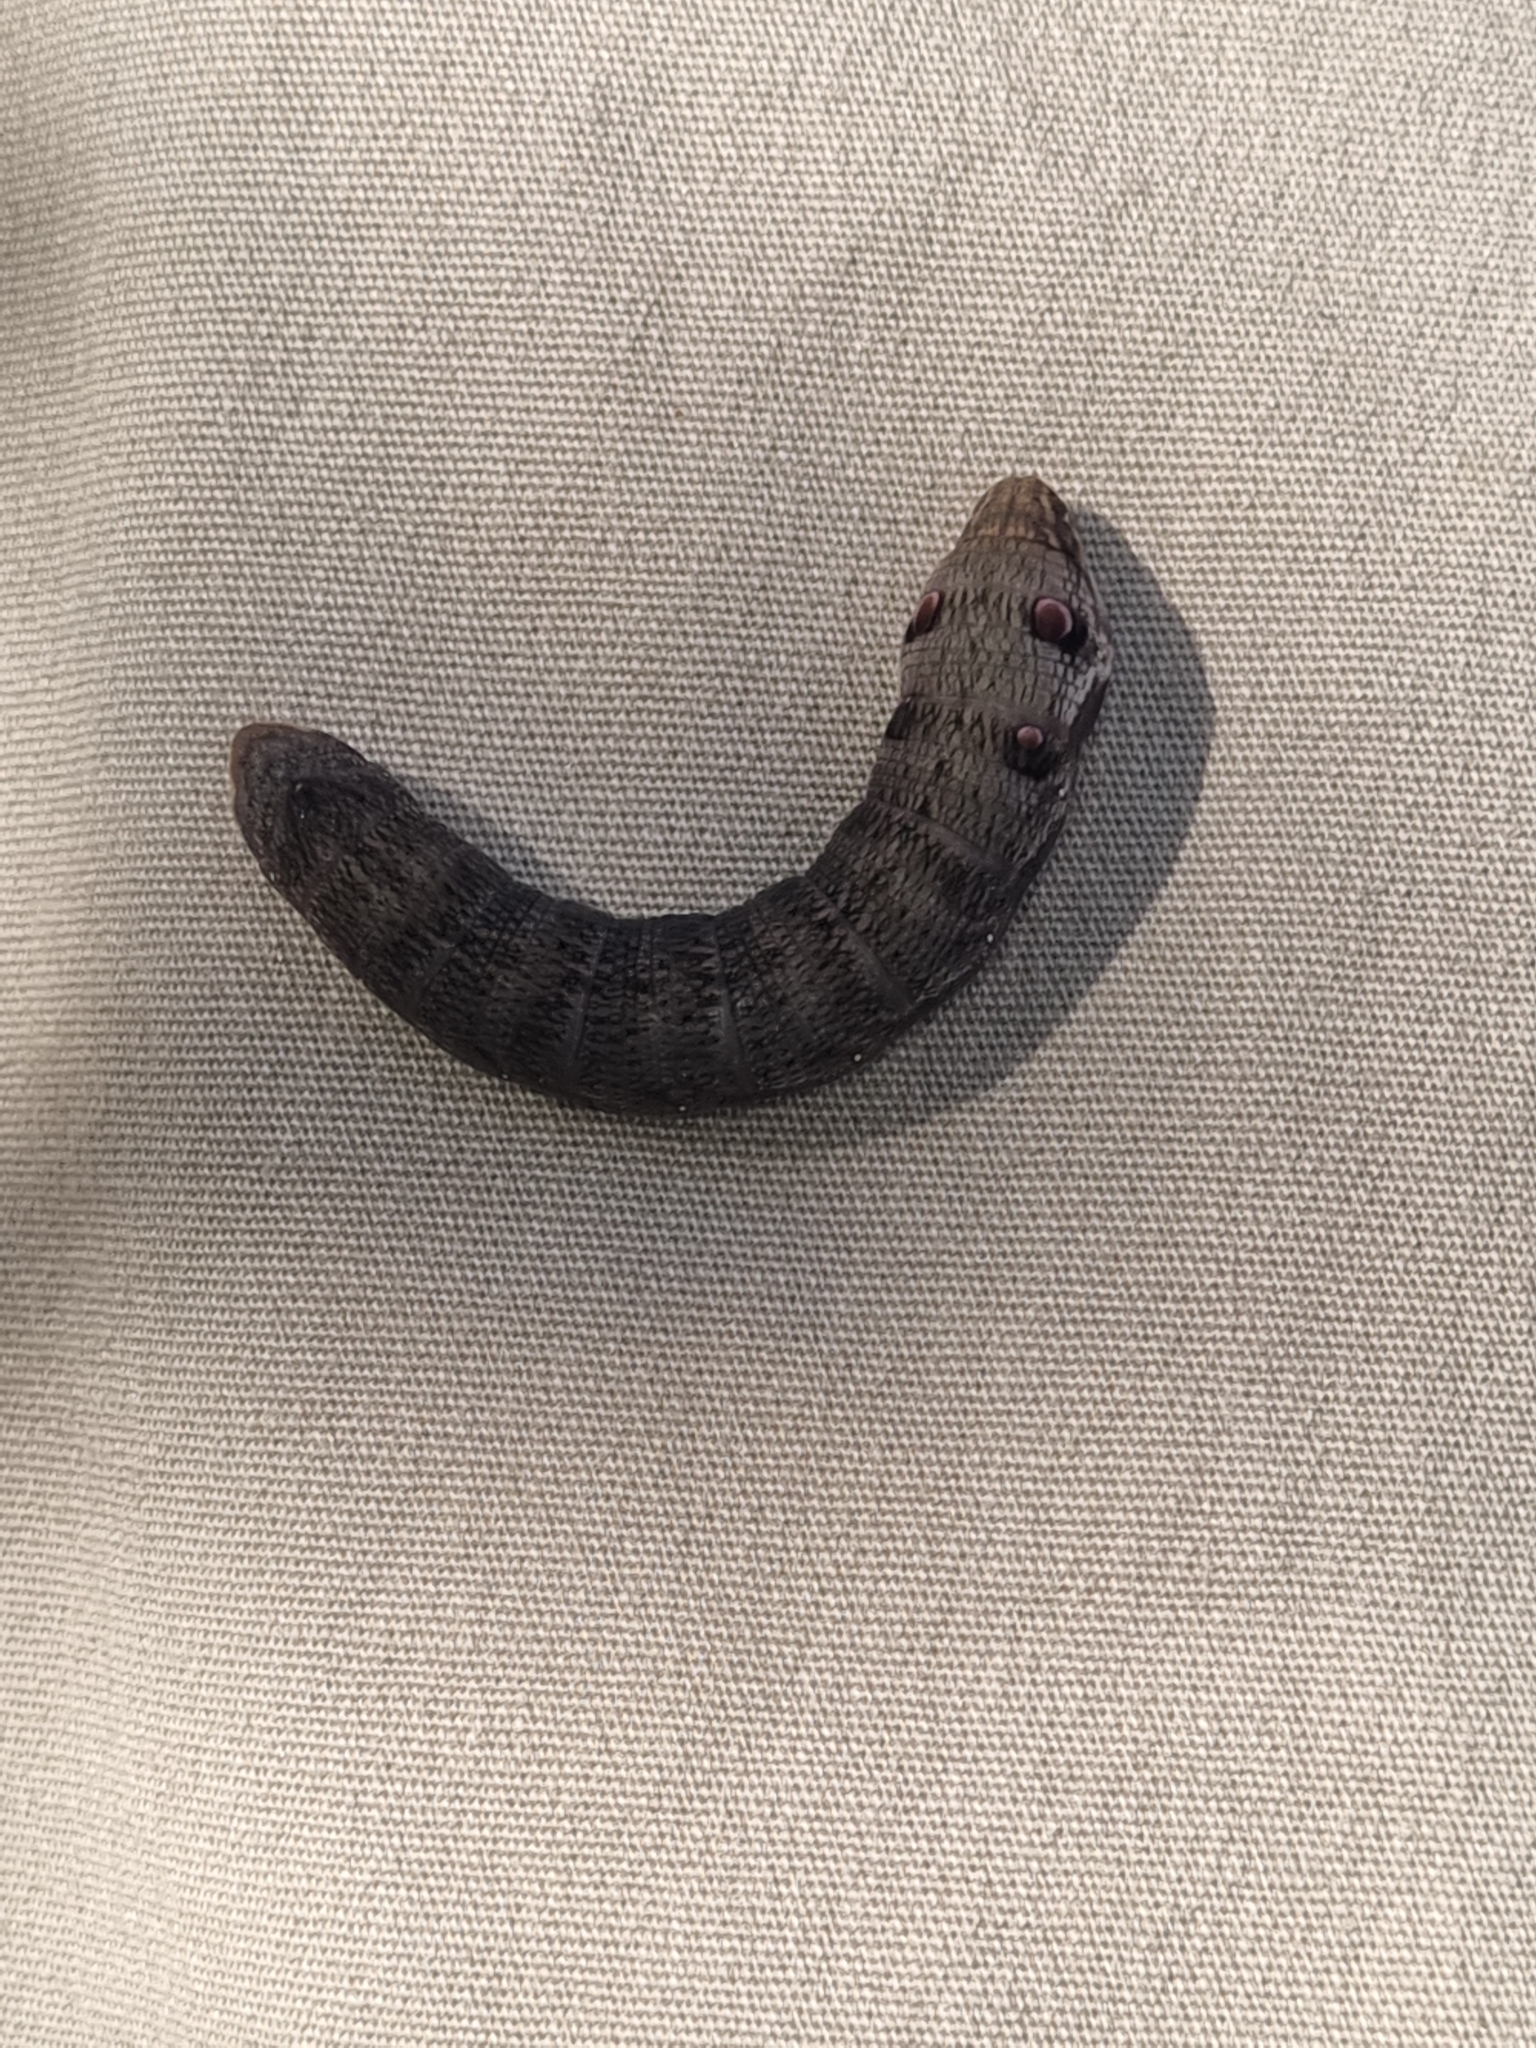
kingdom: Animalia
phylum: Arthropoda
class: Insecta
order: Lepidoptera
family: Sphingidae
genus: Deilephila
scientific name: Deilephila porcellus
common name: Small elephant hawk-moth
